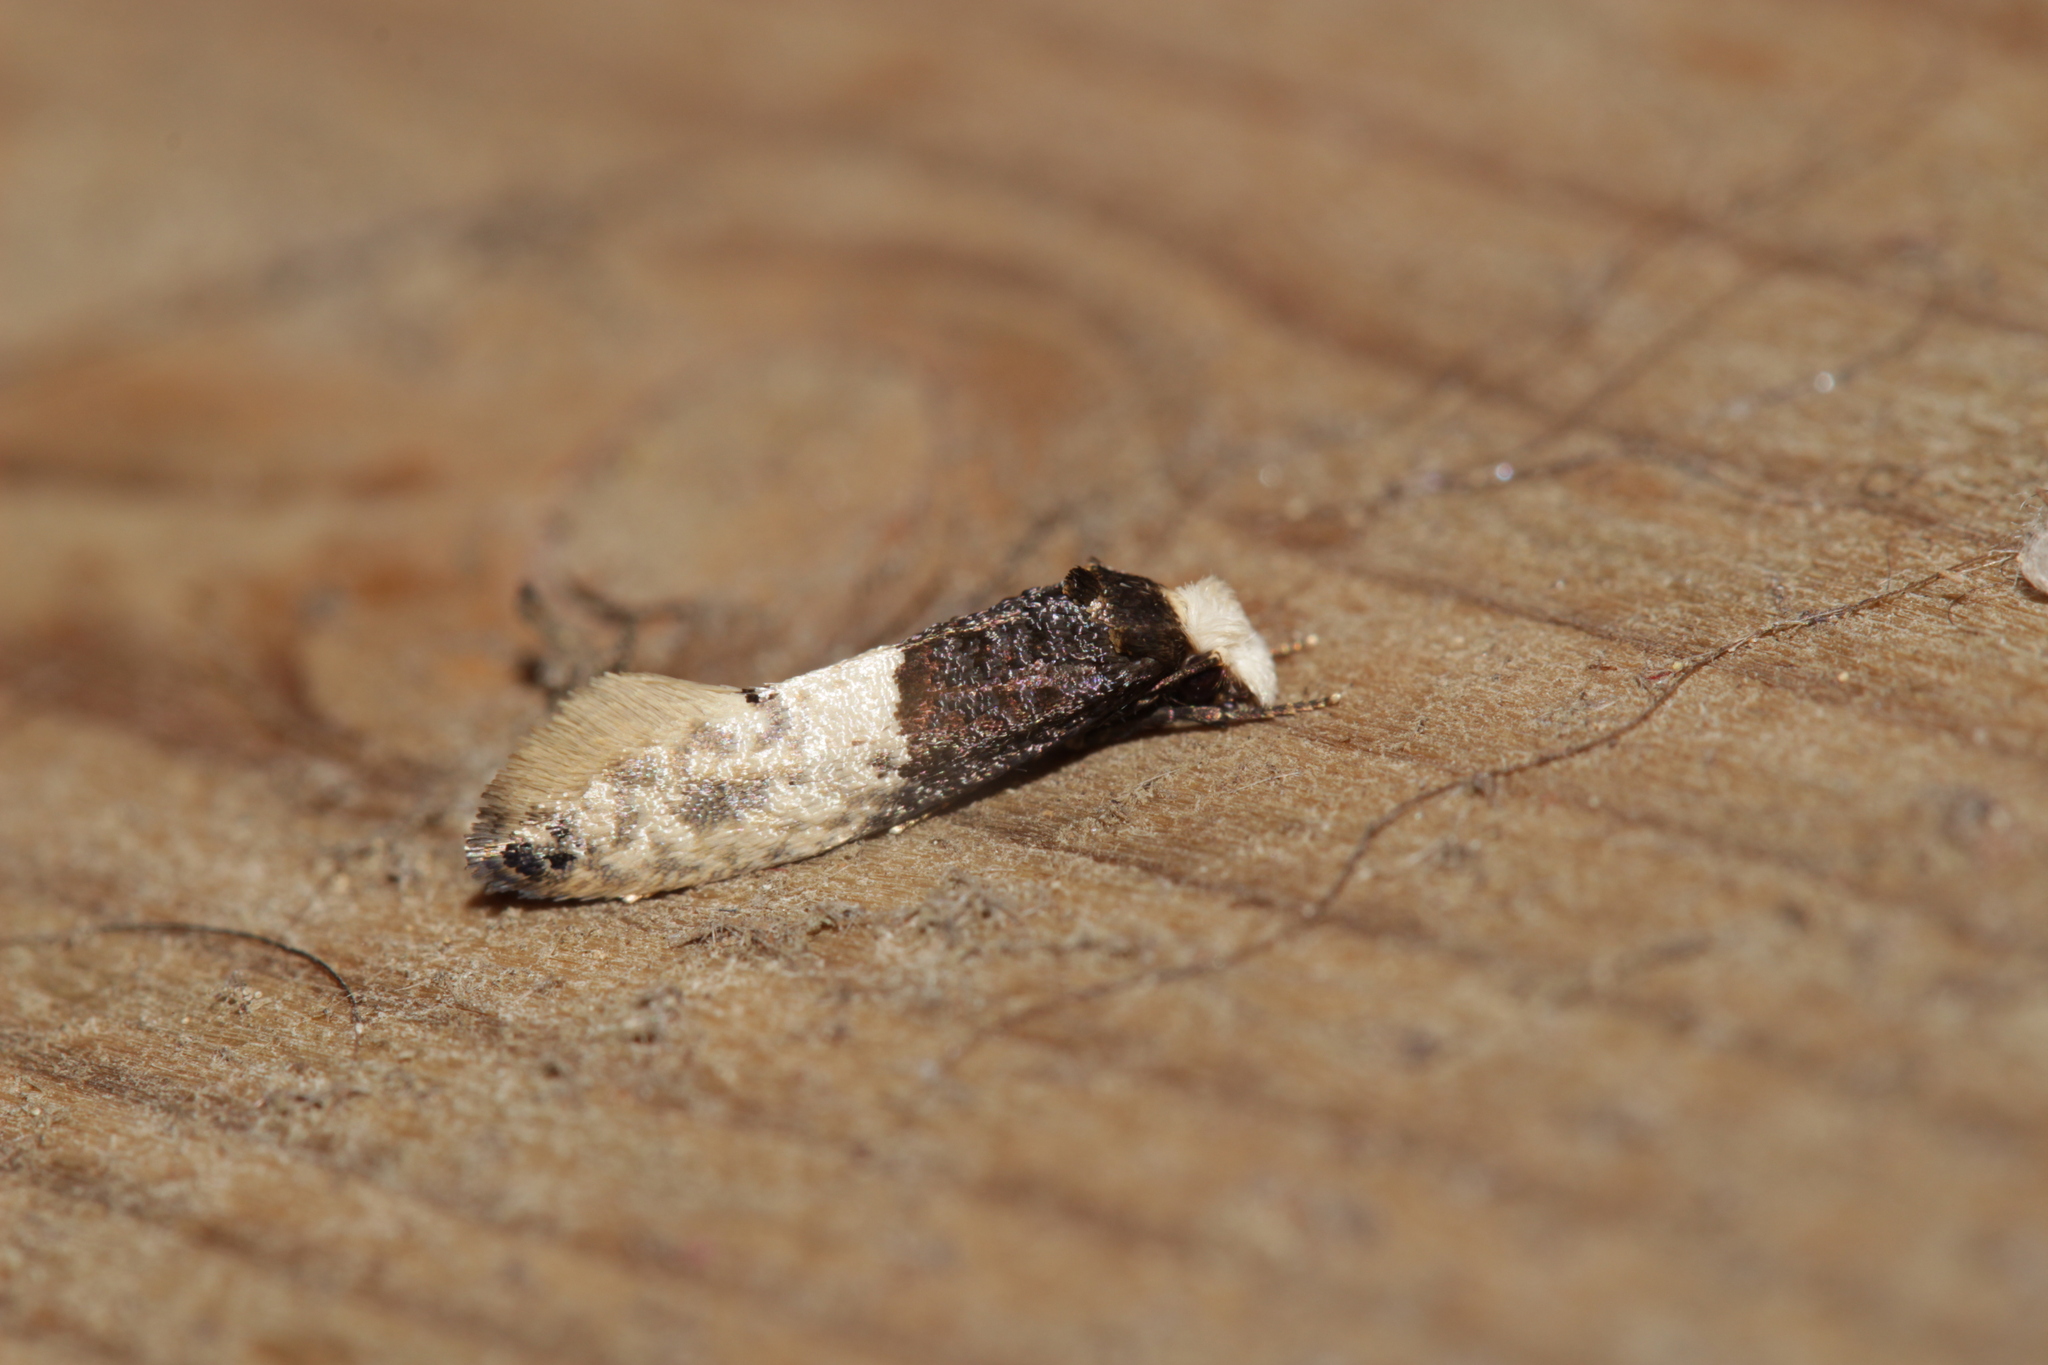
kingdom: Animalia
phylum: Arthropoda
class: Insecta
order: Lepidoptera
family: Tineidae
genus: Trichophaga
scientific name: Trichophaga tapetzella
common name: Tapestry moth
